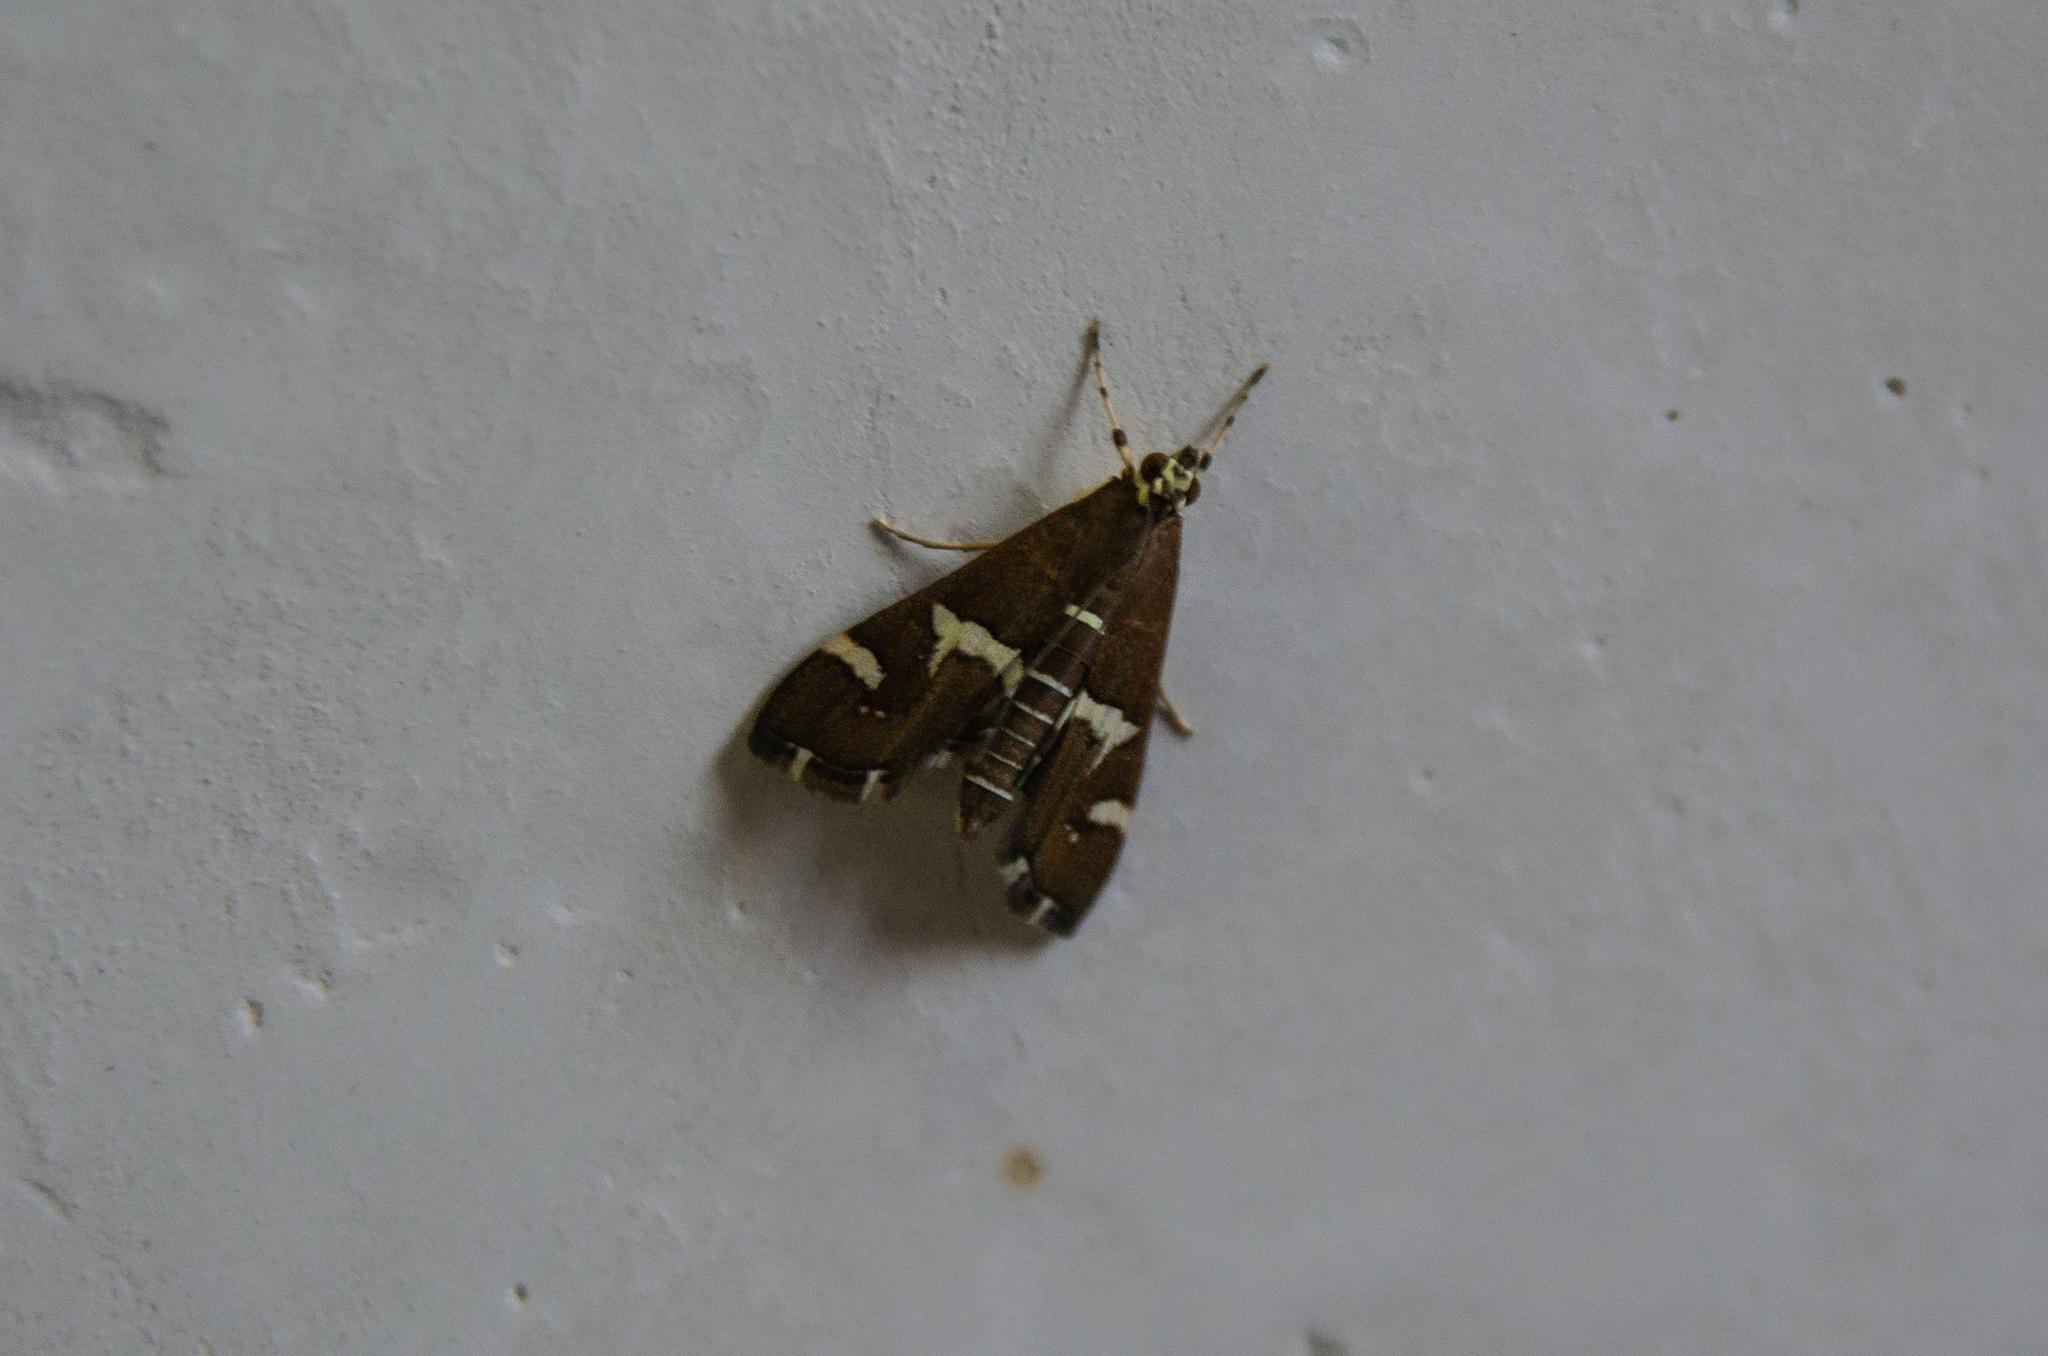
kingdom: Animalia
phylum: Arthropoda
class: Insecta
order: Lepidoptera
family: Crambidae
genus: Spoladea
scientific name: Spoladea recurvalis
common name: Beet webworm moth
